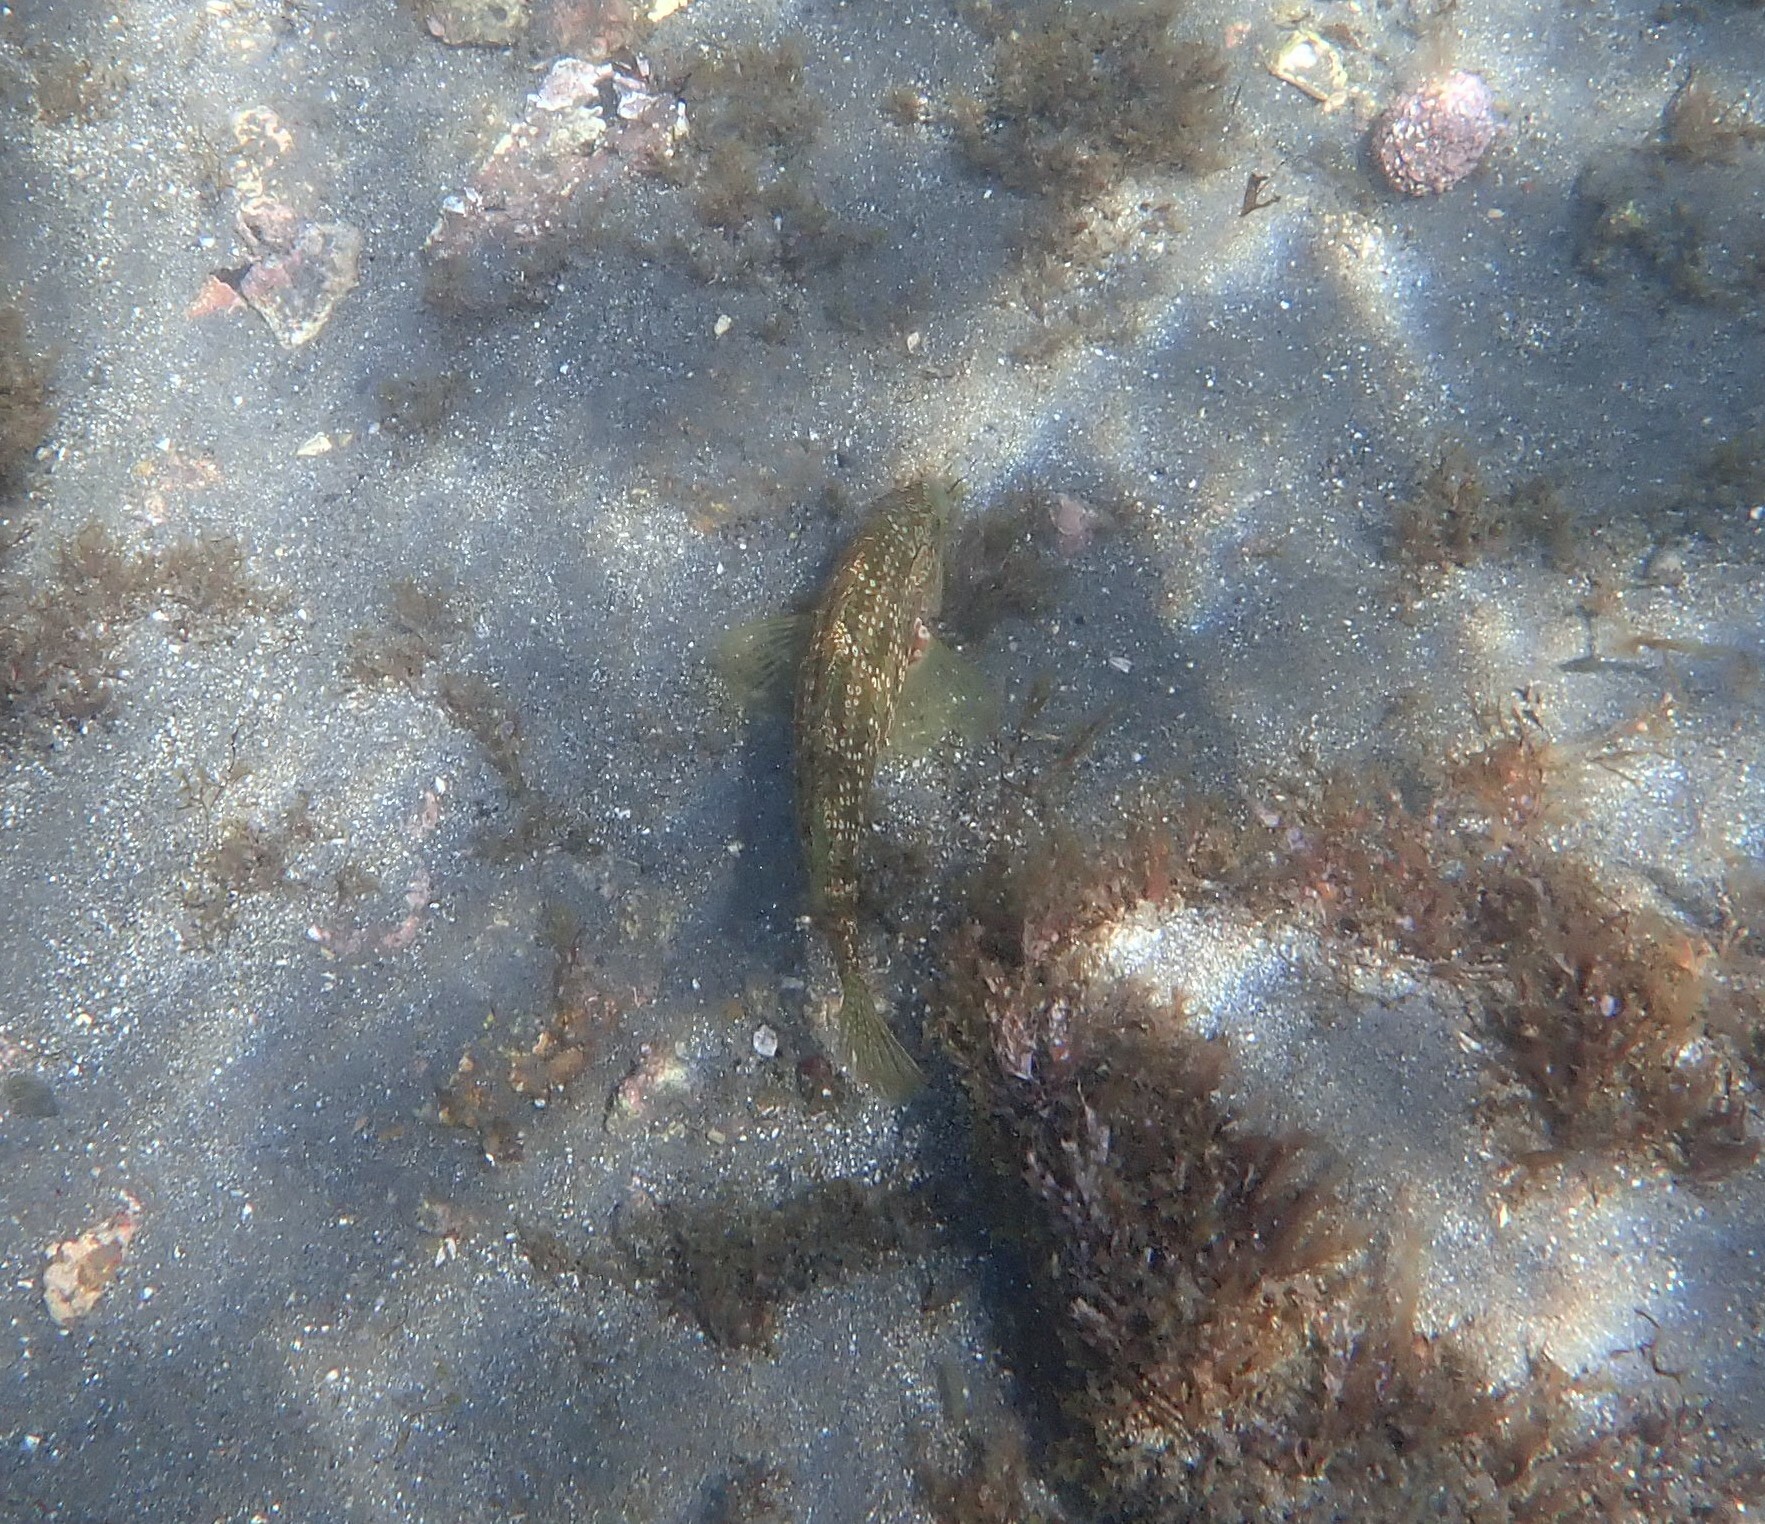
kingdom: Animalia
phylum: Chordata
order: Perciformes
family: Labridae
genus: Symphodus
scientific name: Symphodus caeruleus
